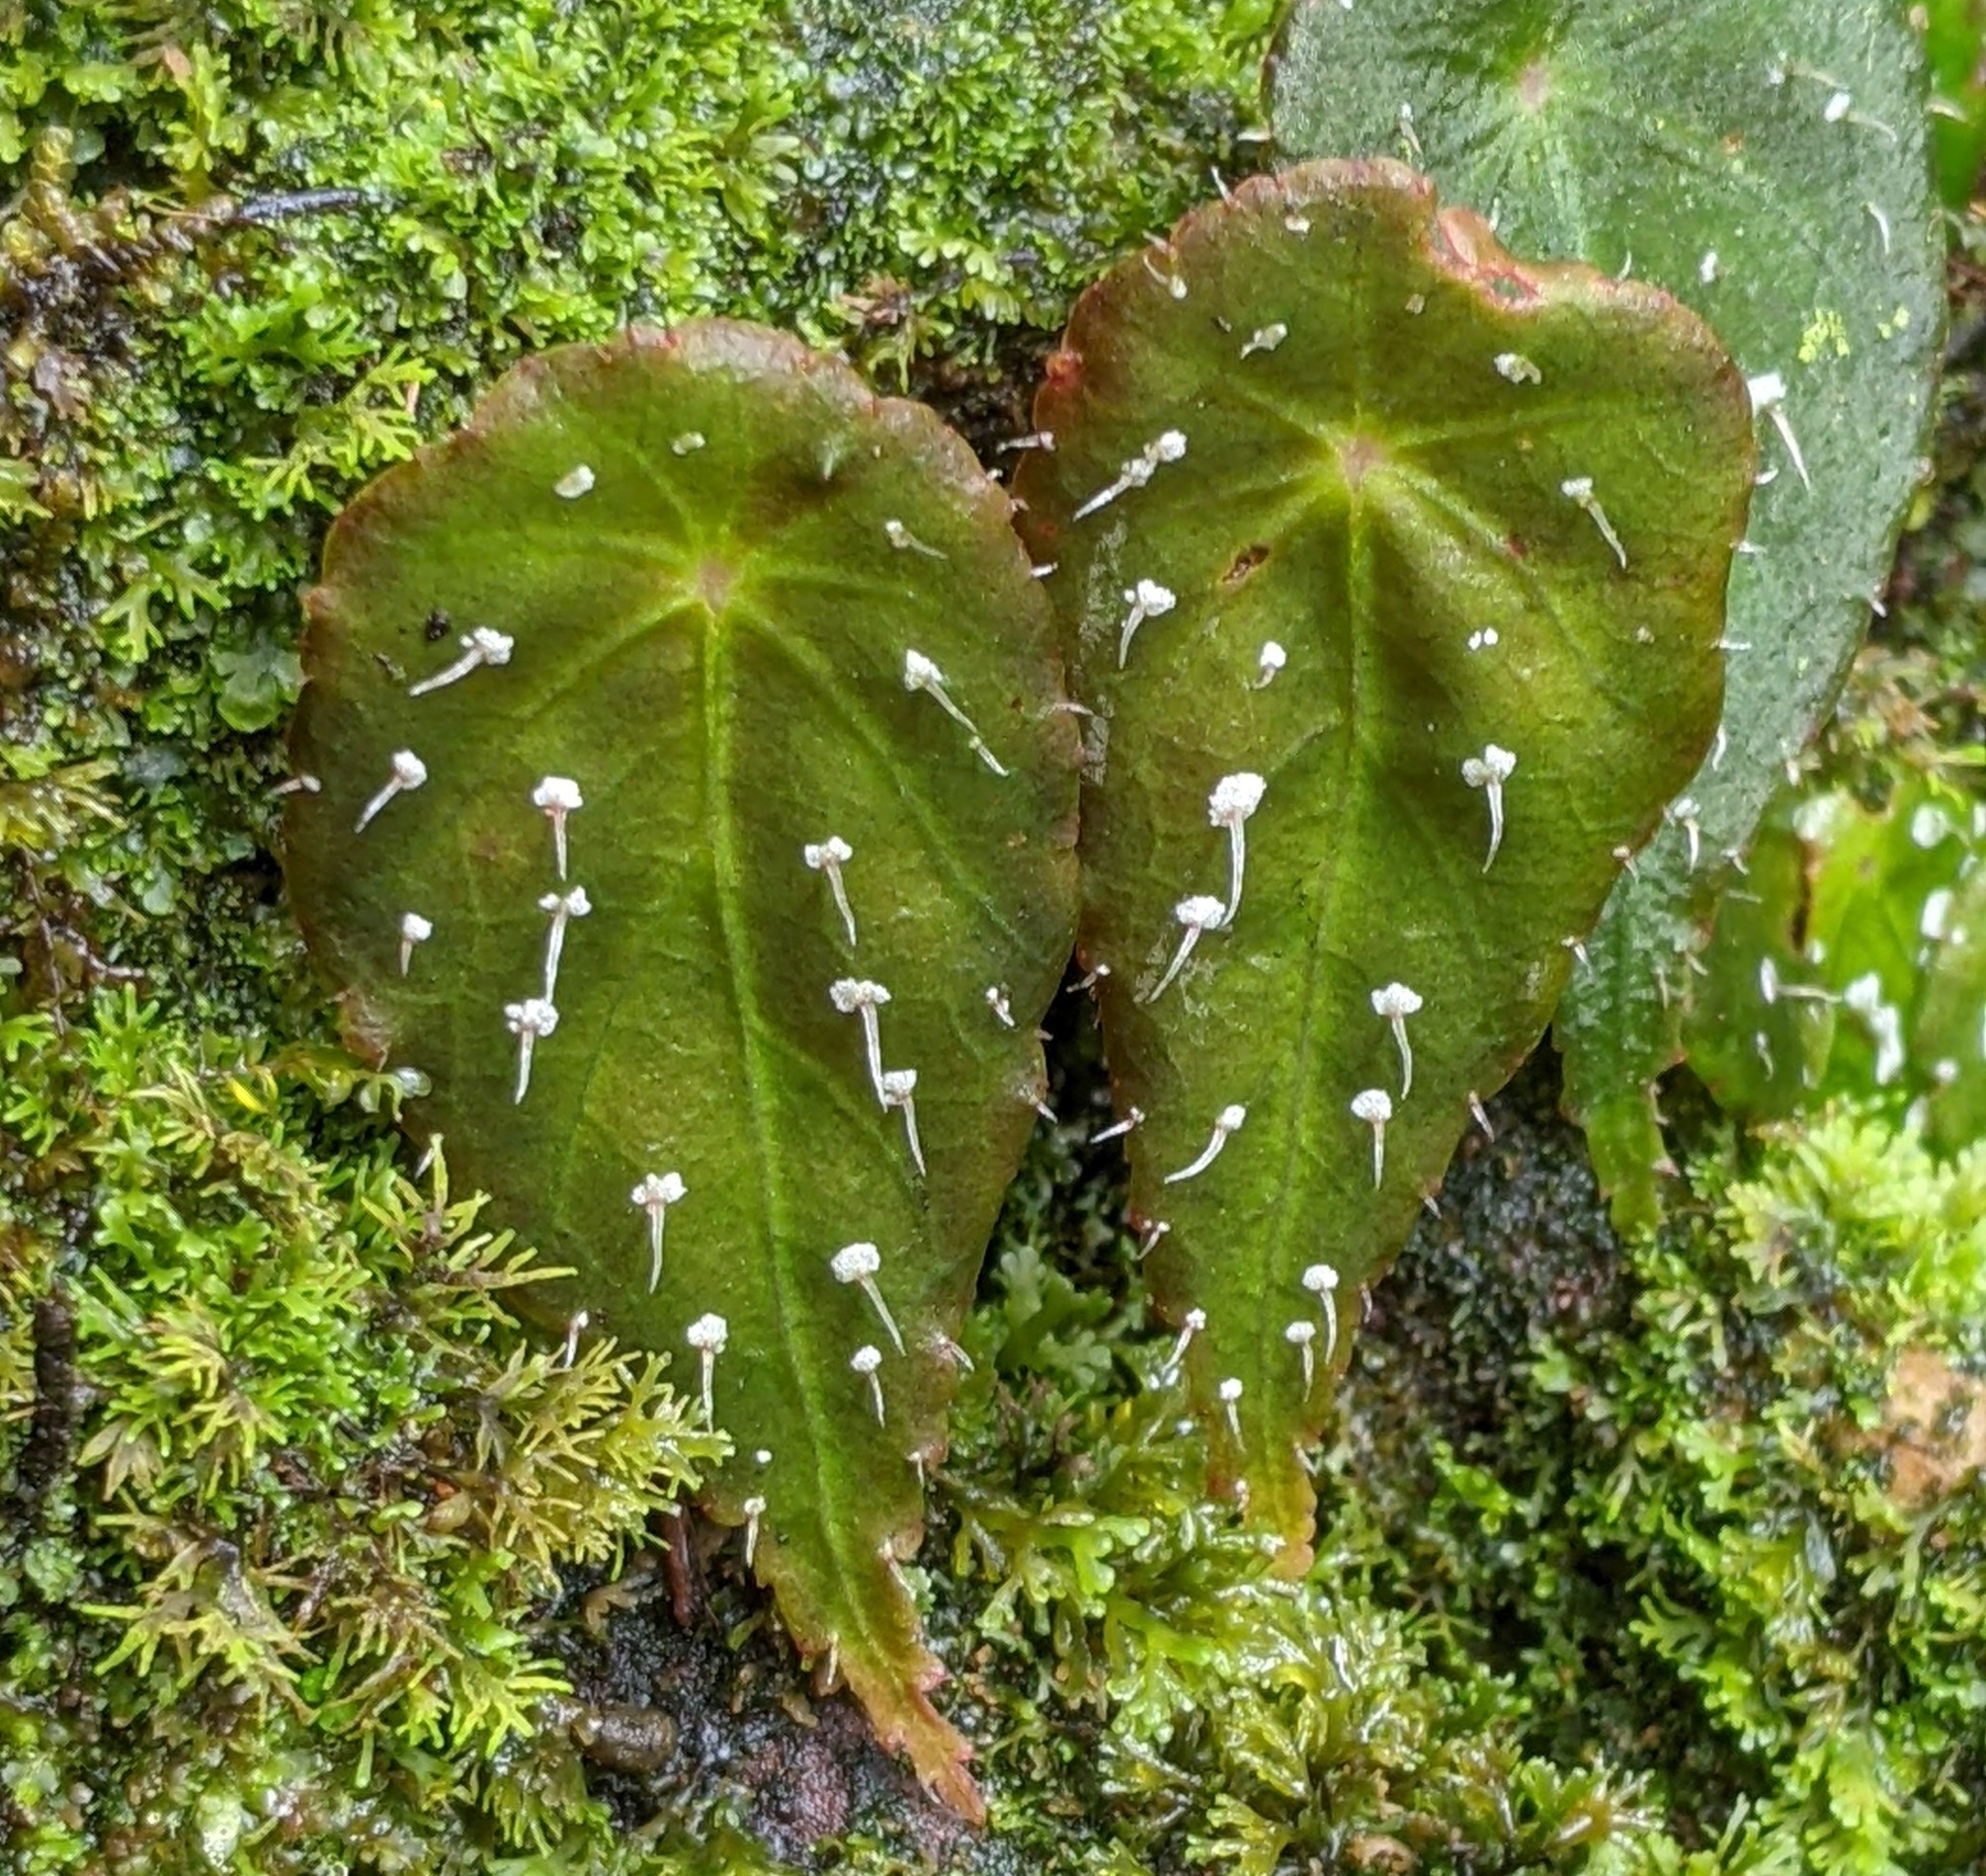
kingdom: Plantae
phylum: Tracheophyta
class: Magnoliopsida
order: Cucurbitales
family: Begoniaceae
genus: Begonia
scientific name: Begonia hitchcockii
